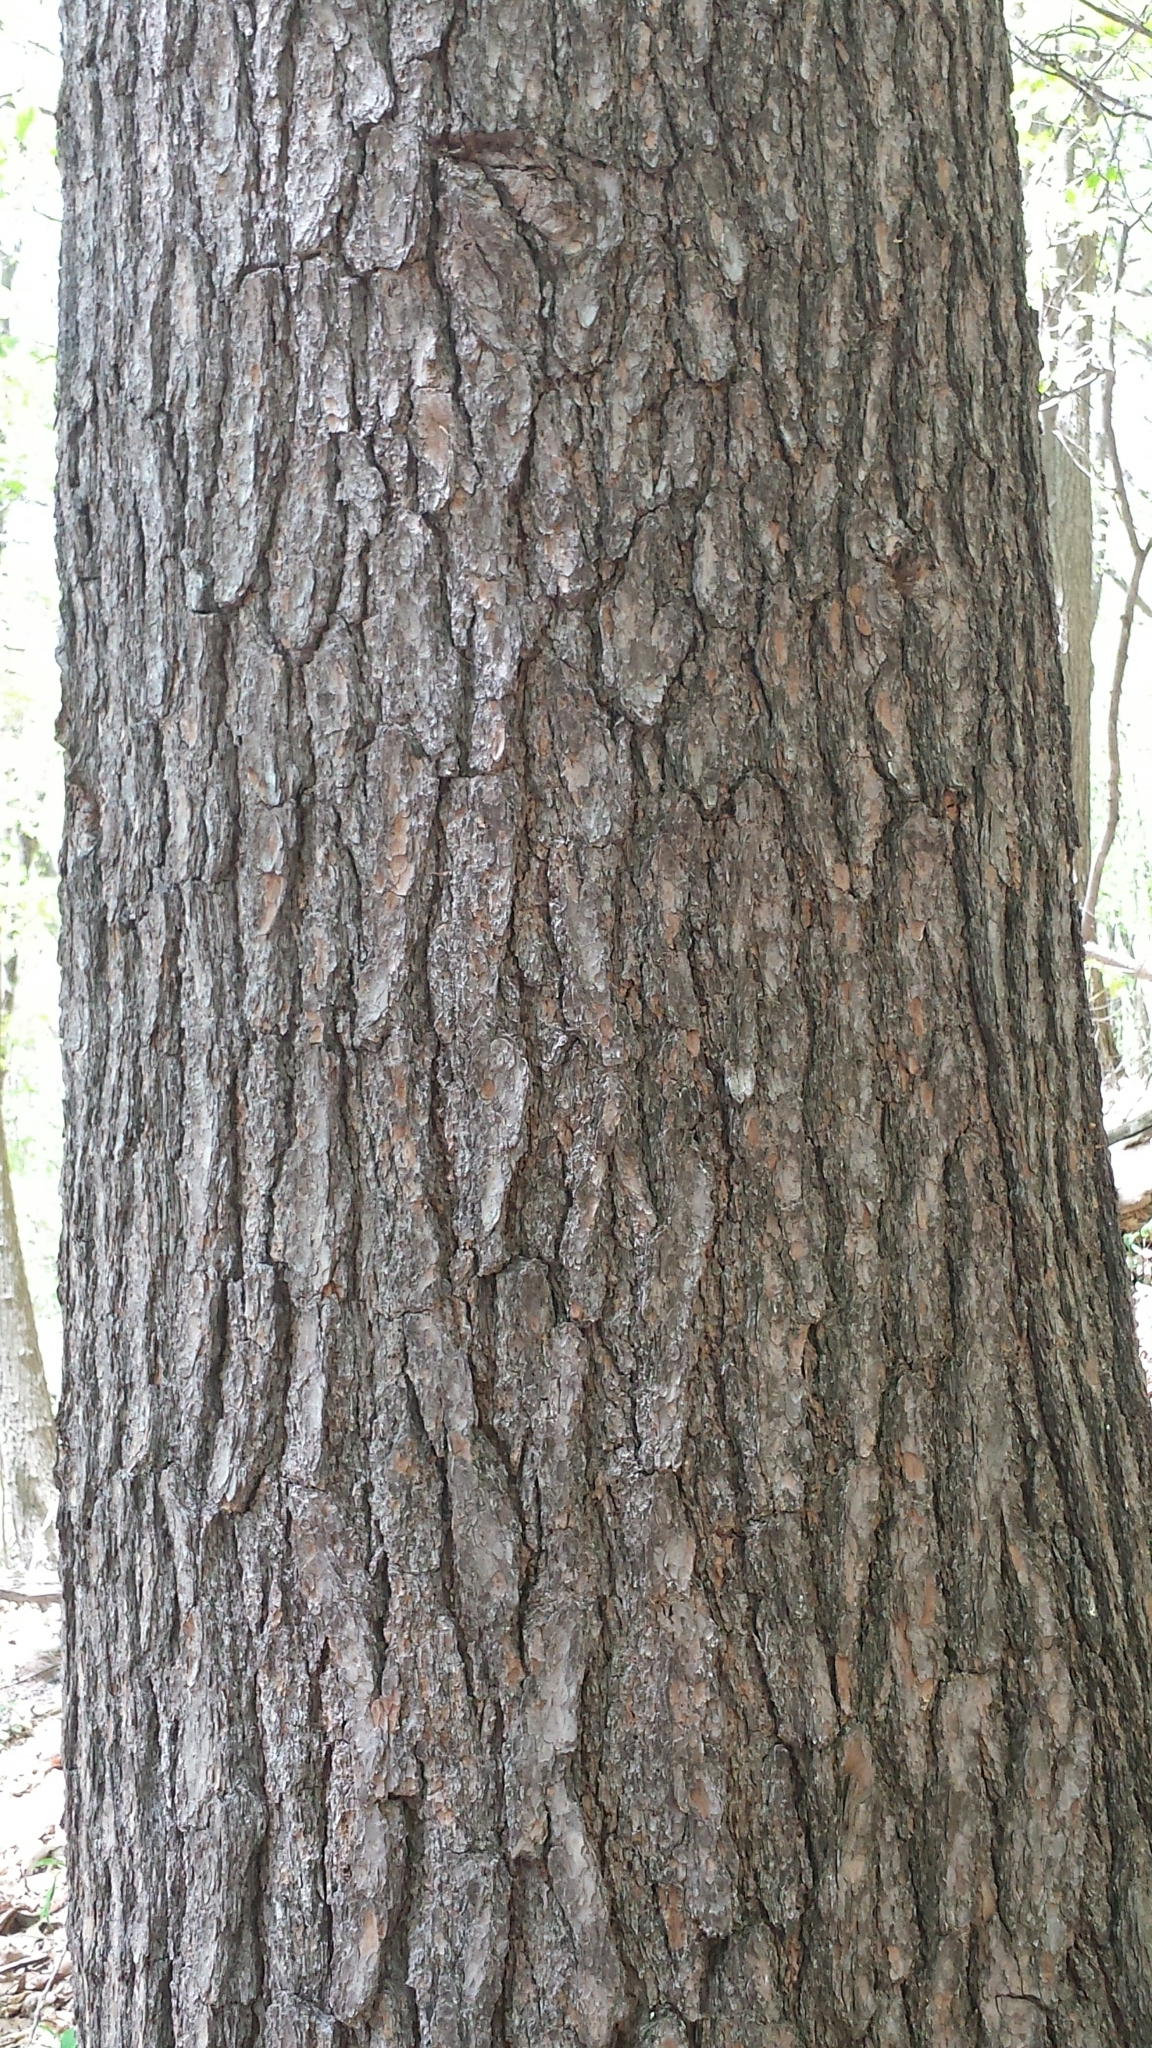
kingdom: Plantae
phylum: Tracheophyta
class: Pinopsida
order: Pinales
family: Pinaceae
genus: Pinus
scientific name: Pinus strobus
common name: Weymouth pine
